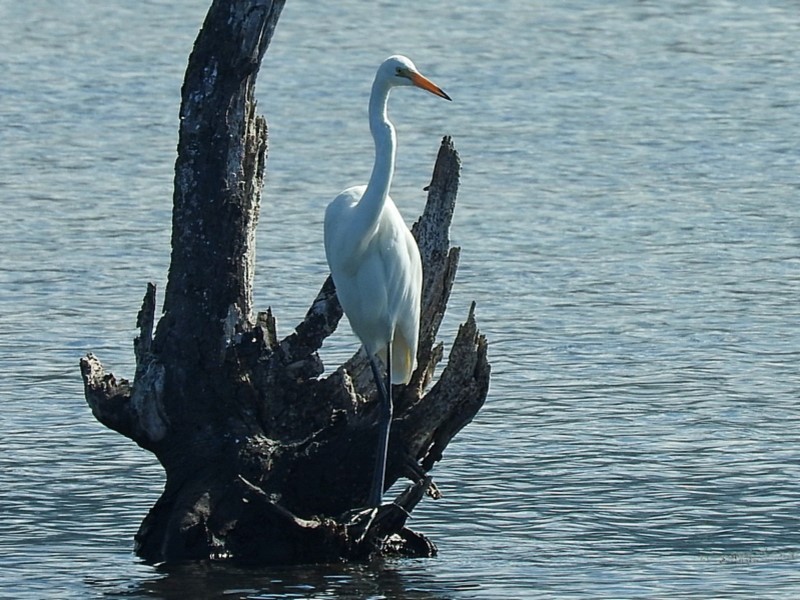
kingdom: Animalia
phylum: Chordata
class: Aves
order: Pelecaniformes
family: Ardeidae
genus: Ardea
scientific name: Ardea alba
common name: Great egret
